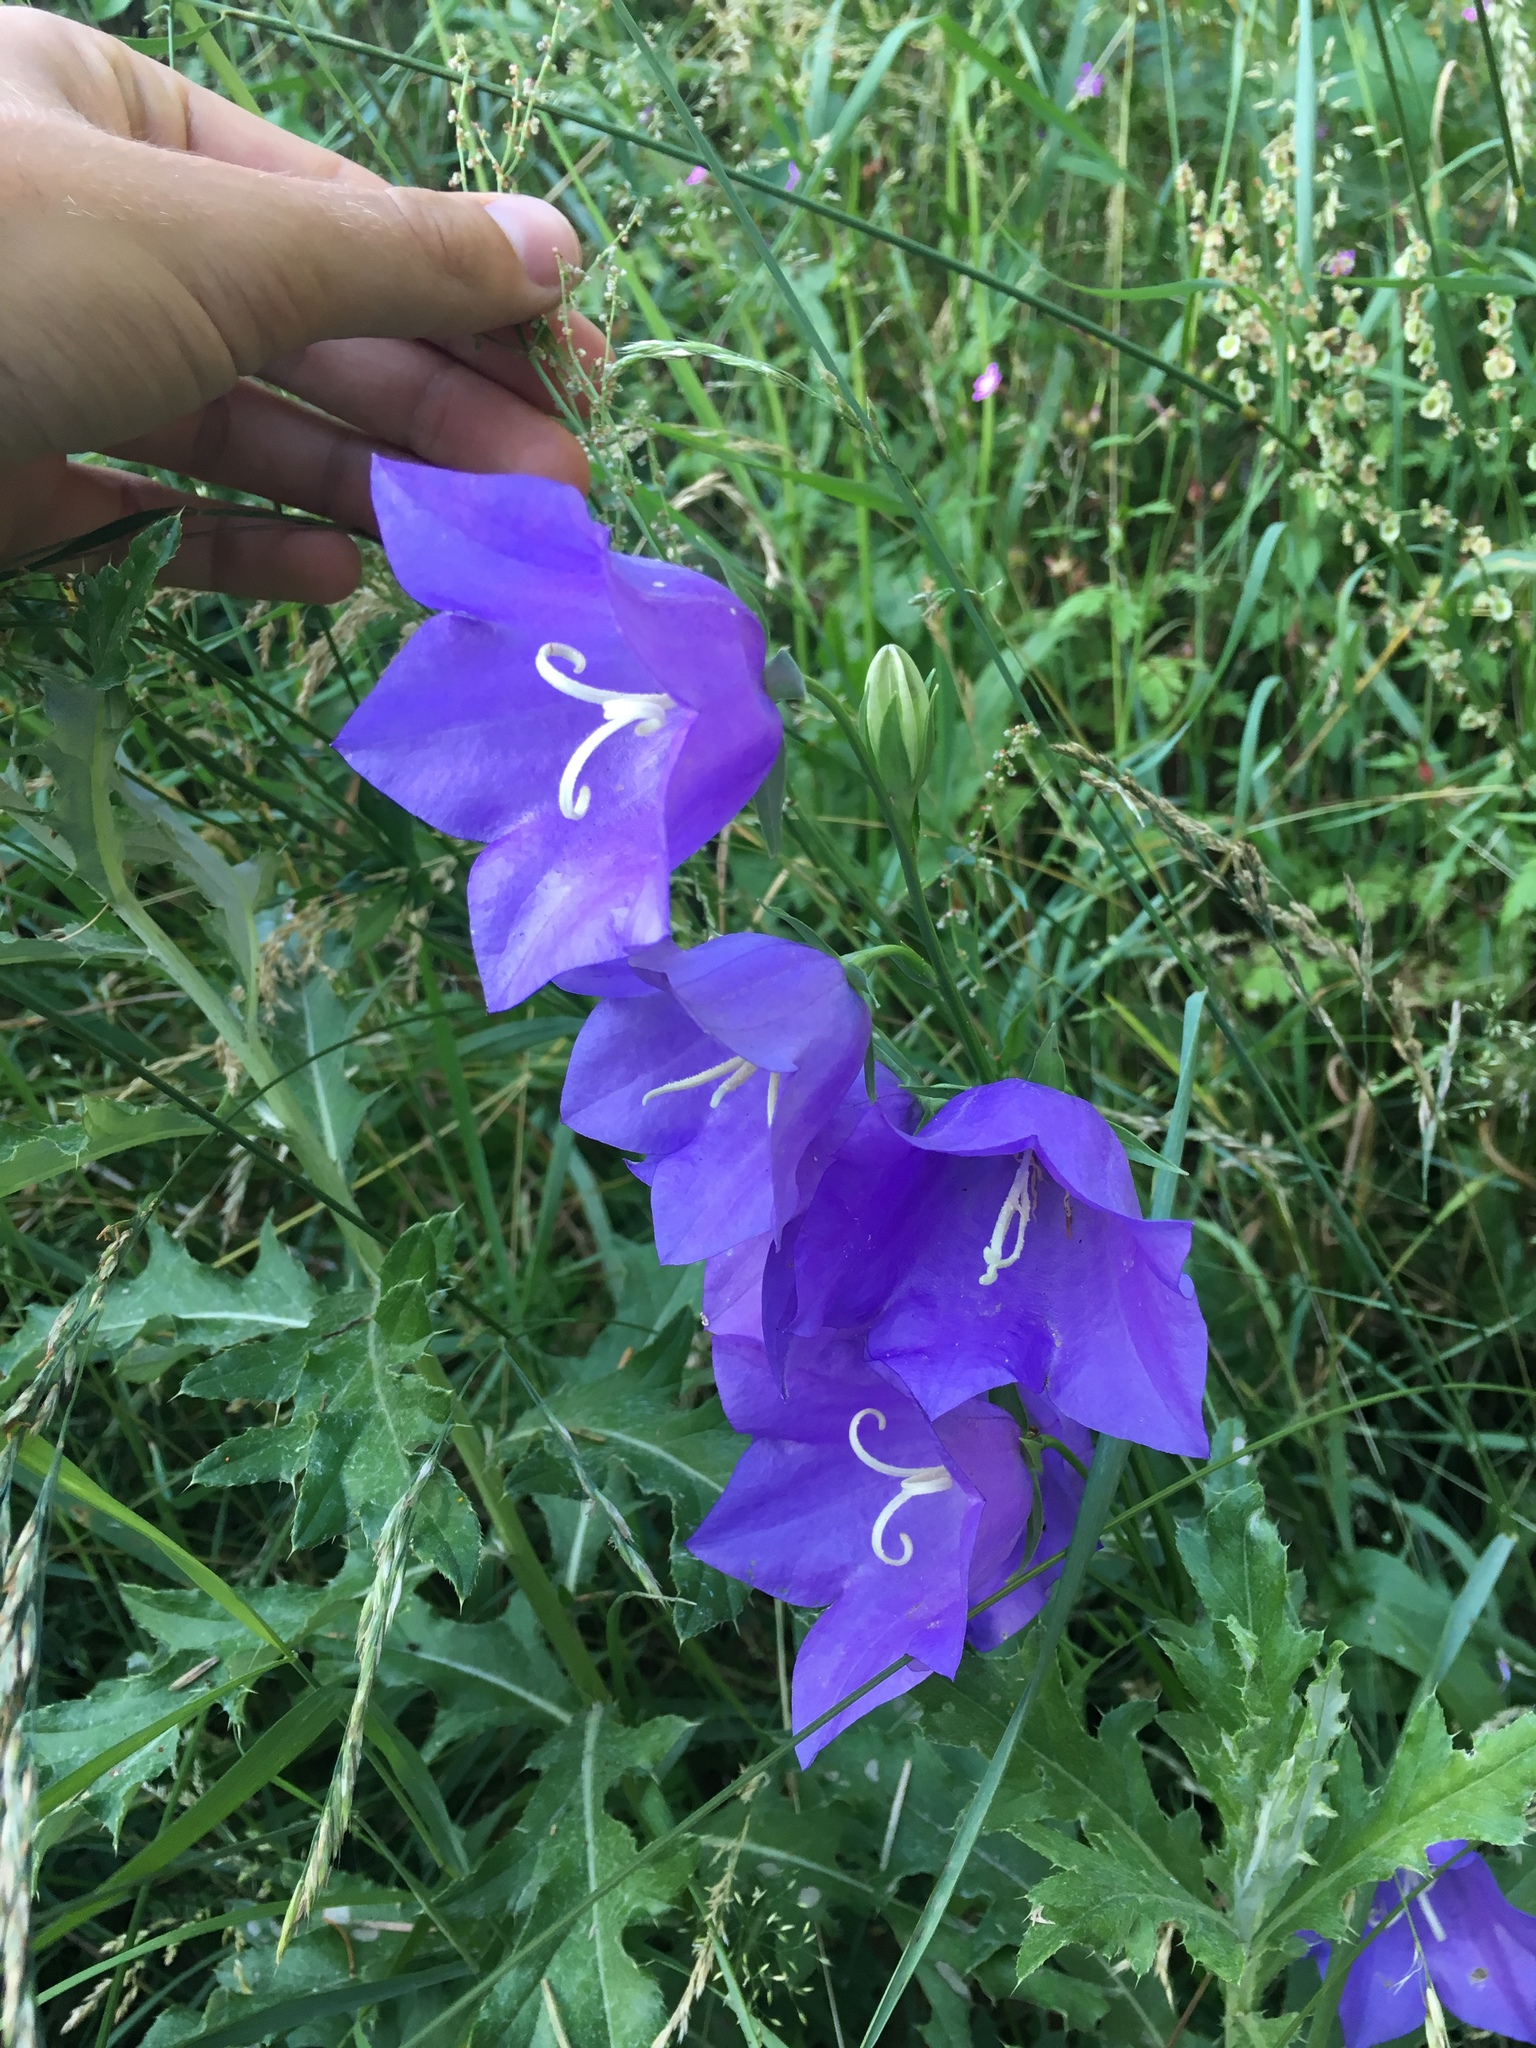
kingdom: Plantae
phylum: Tracheophyta
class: Magnoliopsida
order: Asterales
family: Campanulaceae
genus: Campanula
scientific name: Campanula persicifolia
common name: Peach-leaved bellflower
